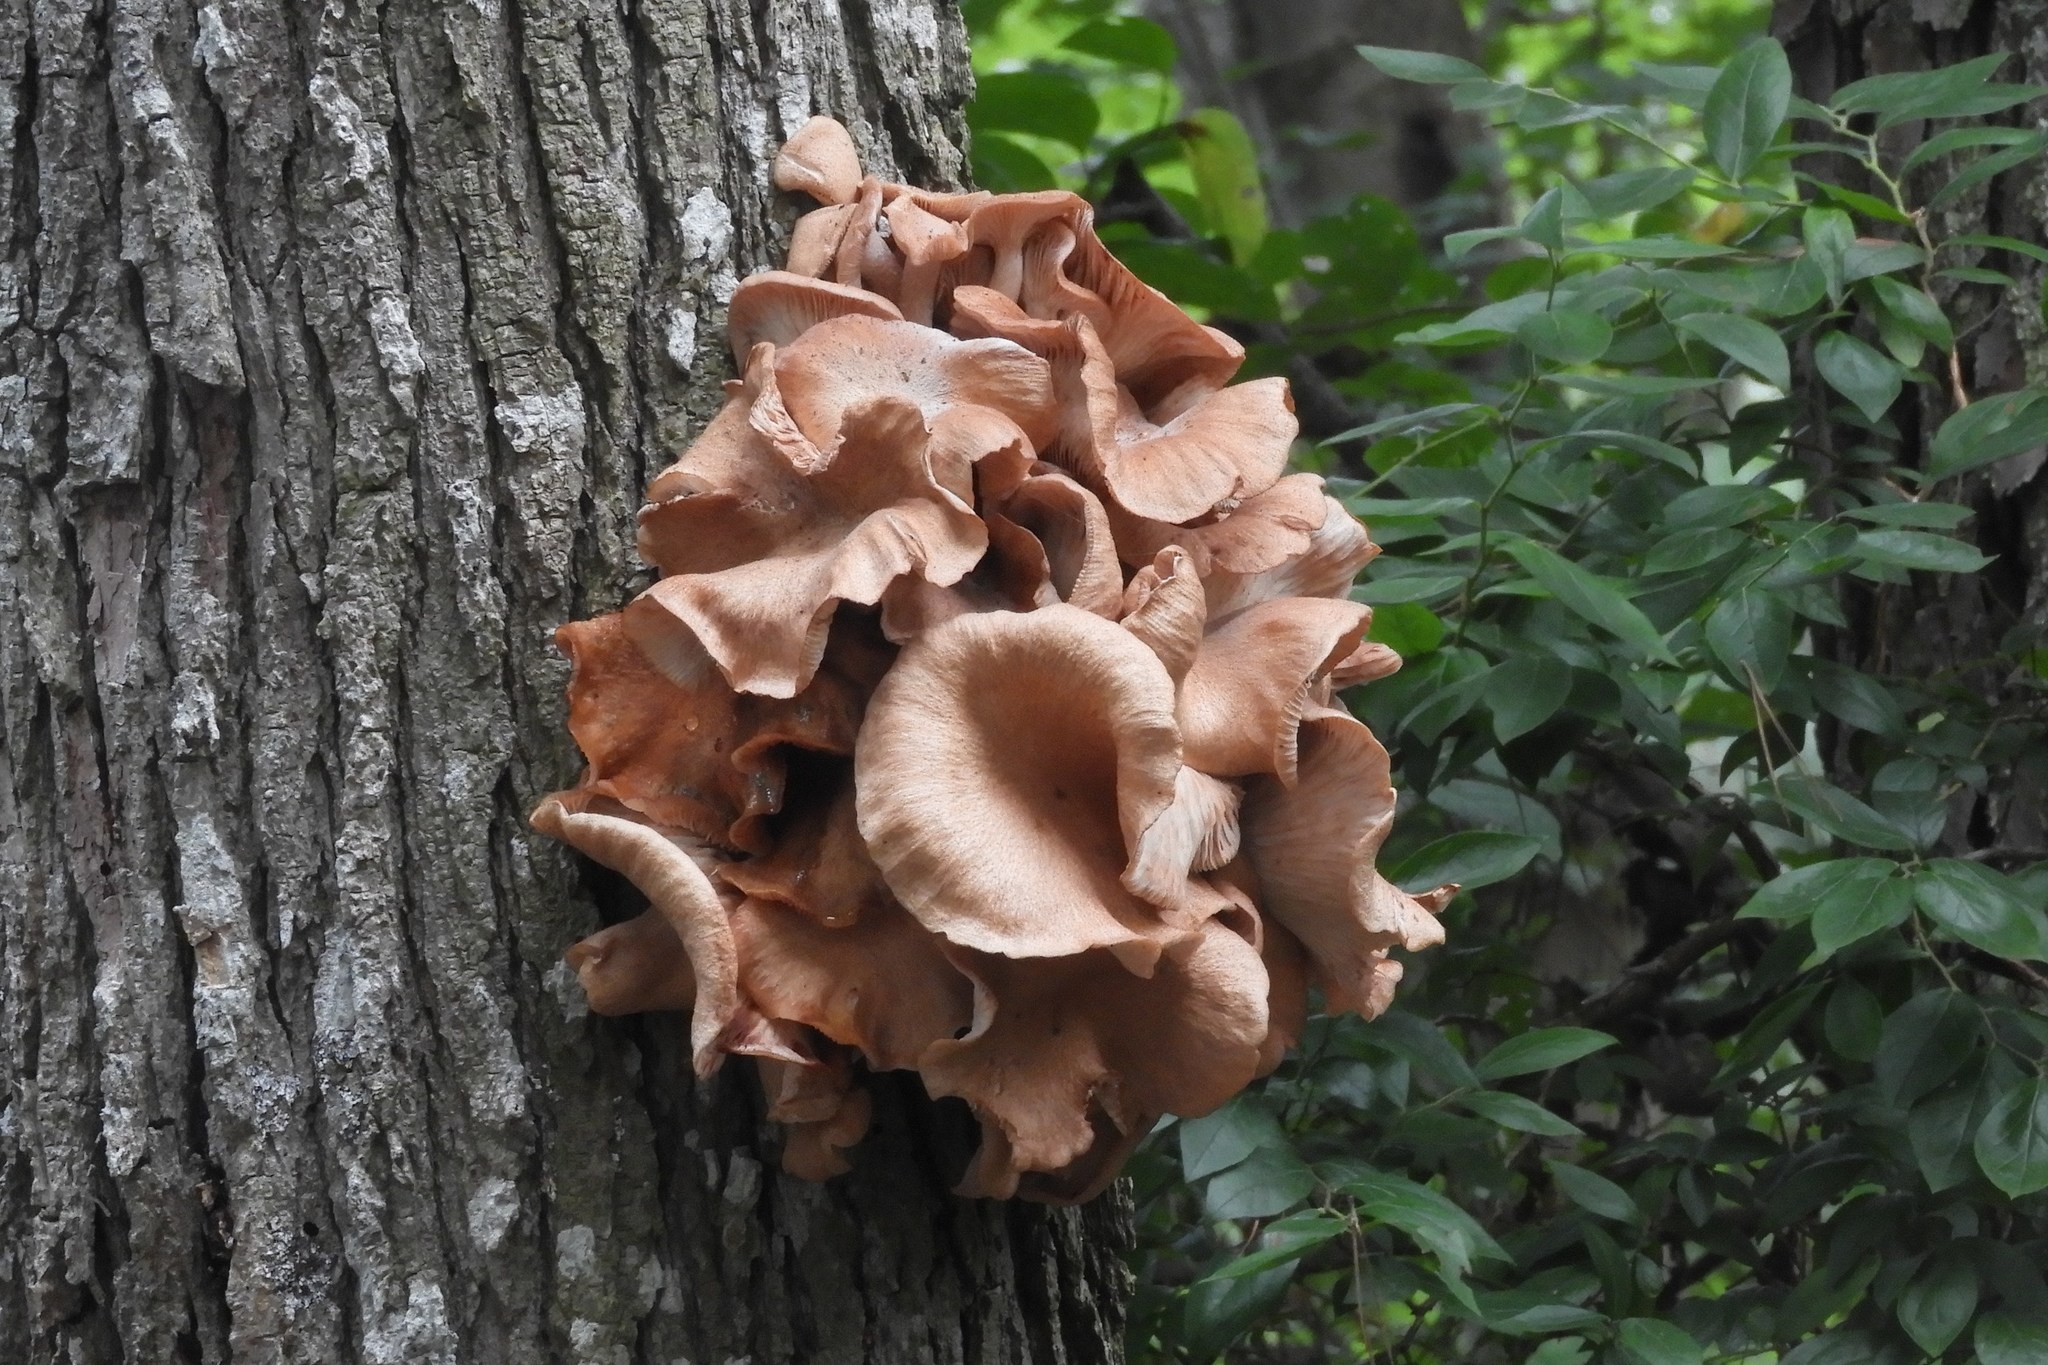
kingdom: Fungi
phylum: Basidiomycota
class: Agaricomycetes
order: Agaricales
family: Physalacriaceae
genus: Desarmillaria
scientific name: Desarmillaria caespitosa
